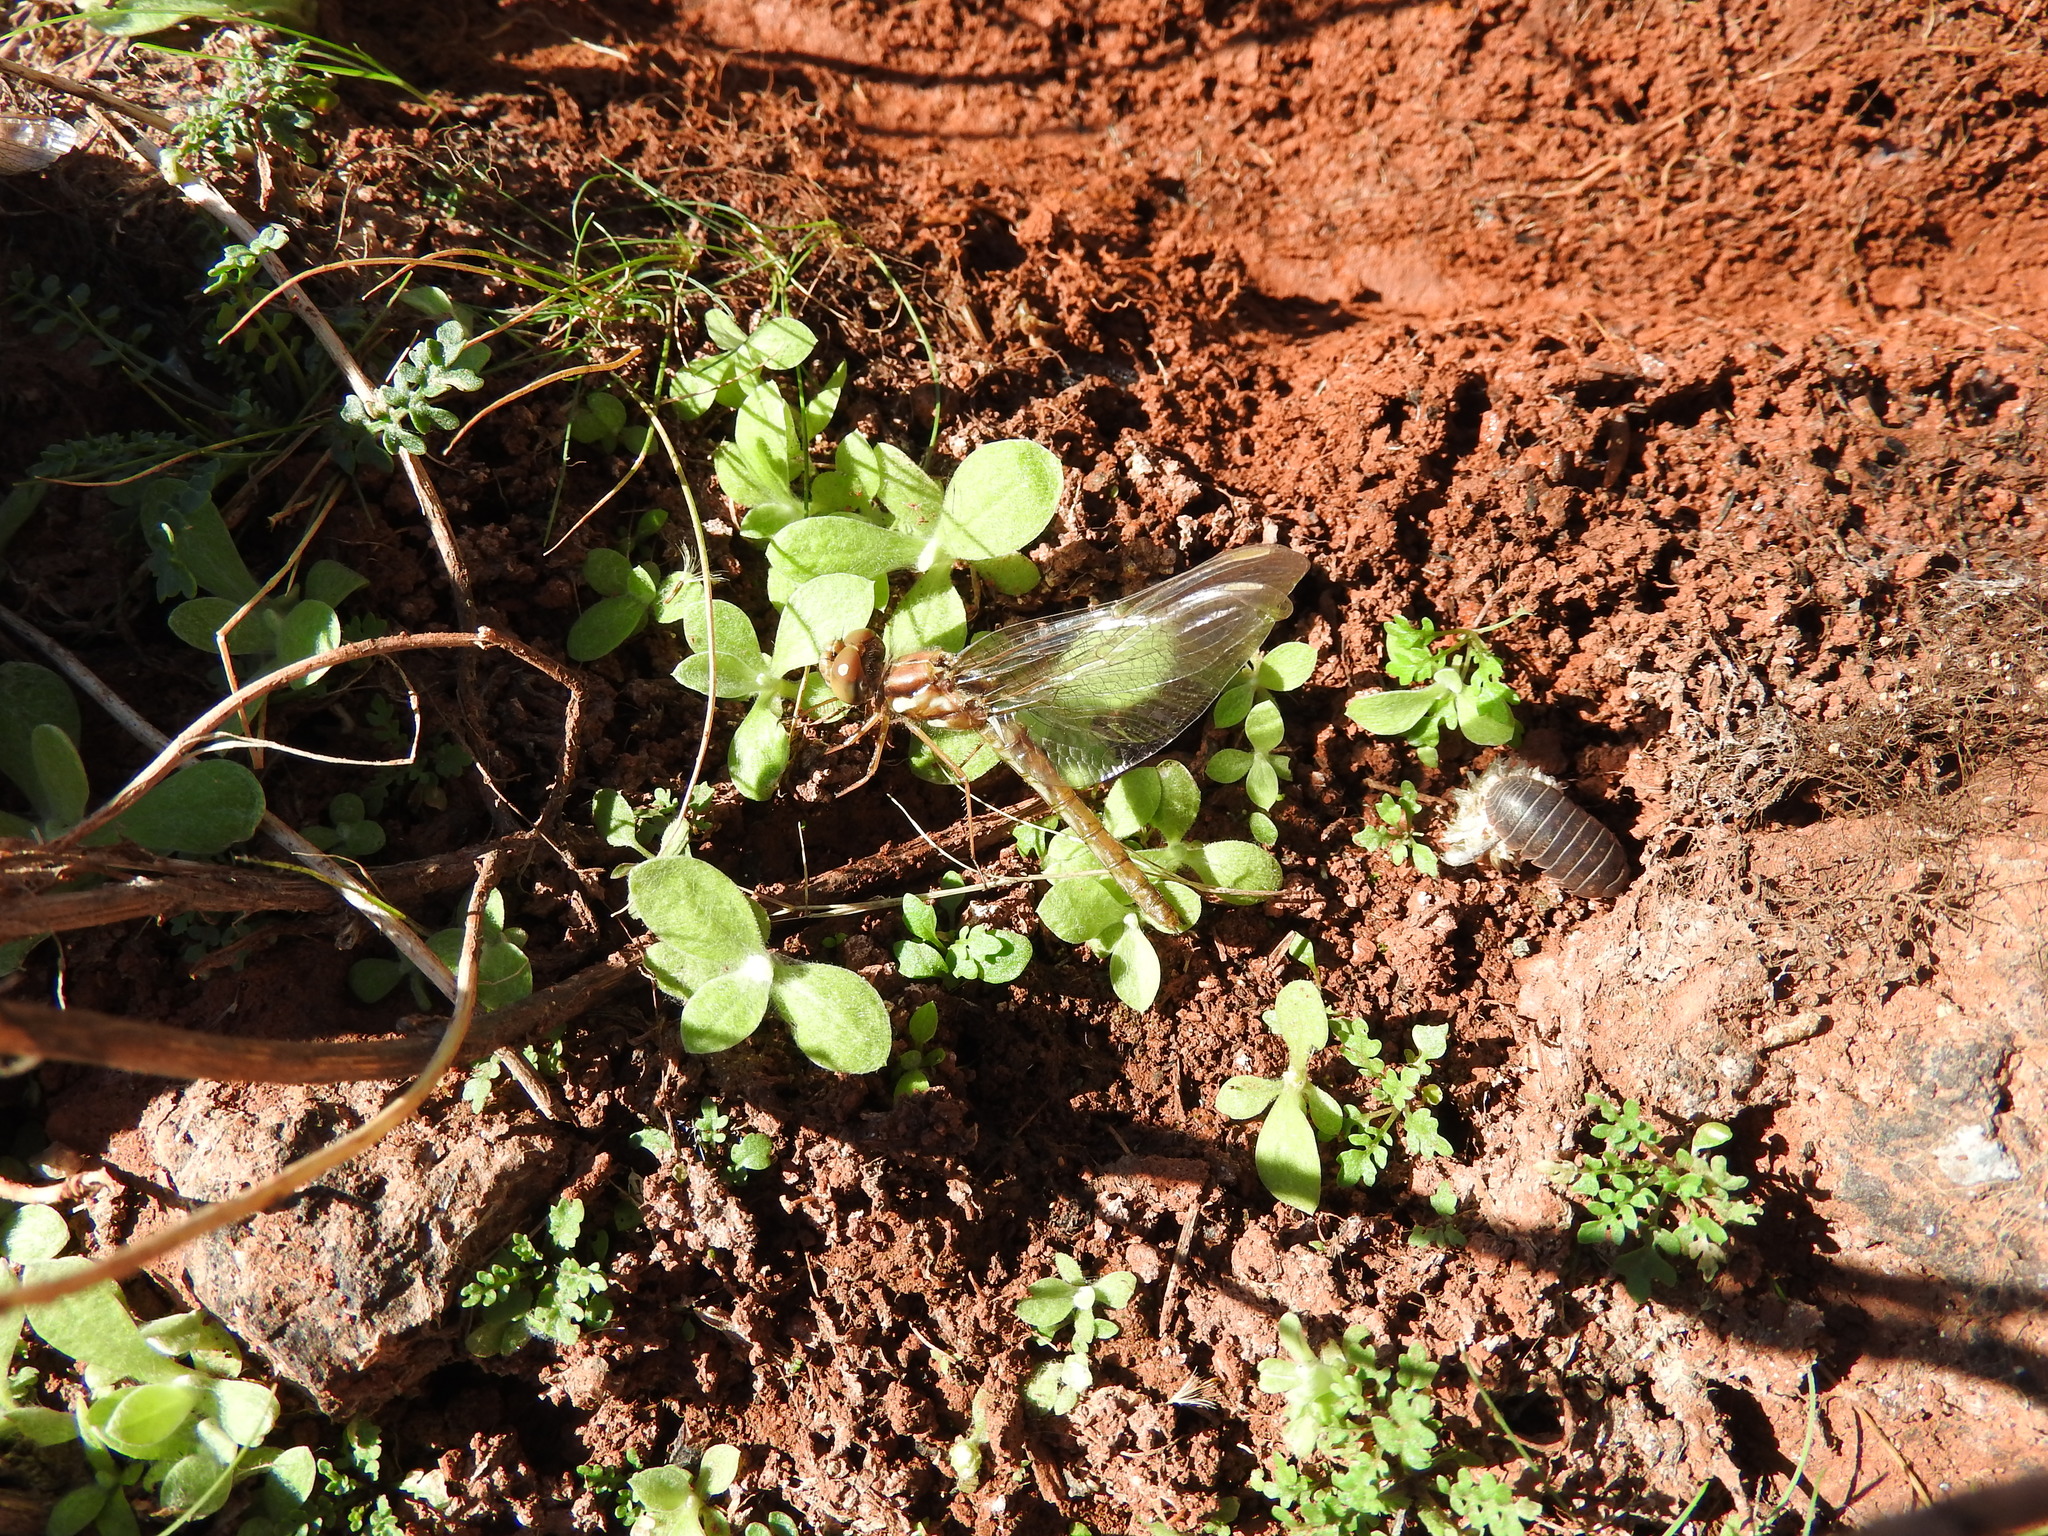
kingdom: Animalia
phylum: Arthropoda
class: Malacostraca
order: Isopoda
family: Armadillidiidae
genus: Armadillidium
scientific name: Armadillidium vulgare
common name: Common pill woodlouse
